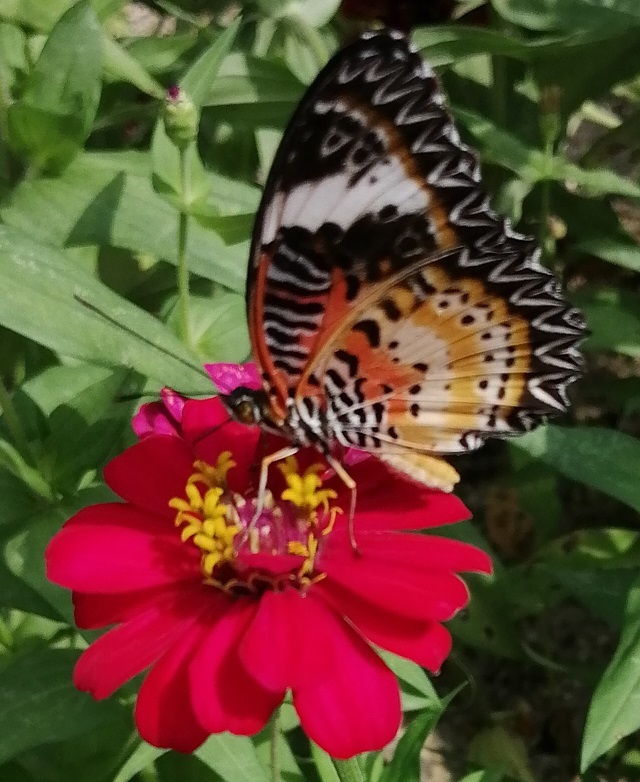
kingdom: Animalia
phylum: Arthropoda
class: Insecta
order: Lepidoptera
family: Nymphalidae
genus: Cethosia
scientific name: Cethosia cyane
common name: Leopard lacewing butterfly
